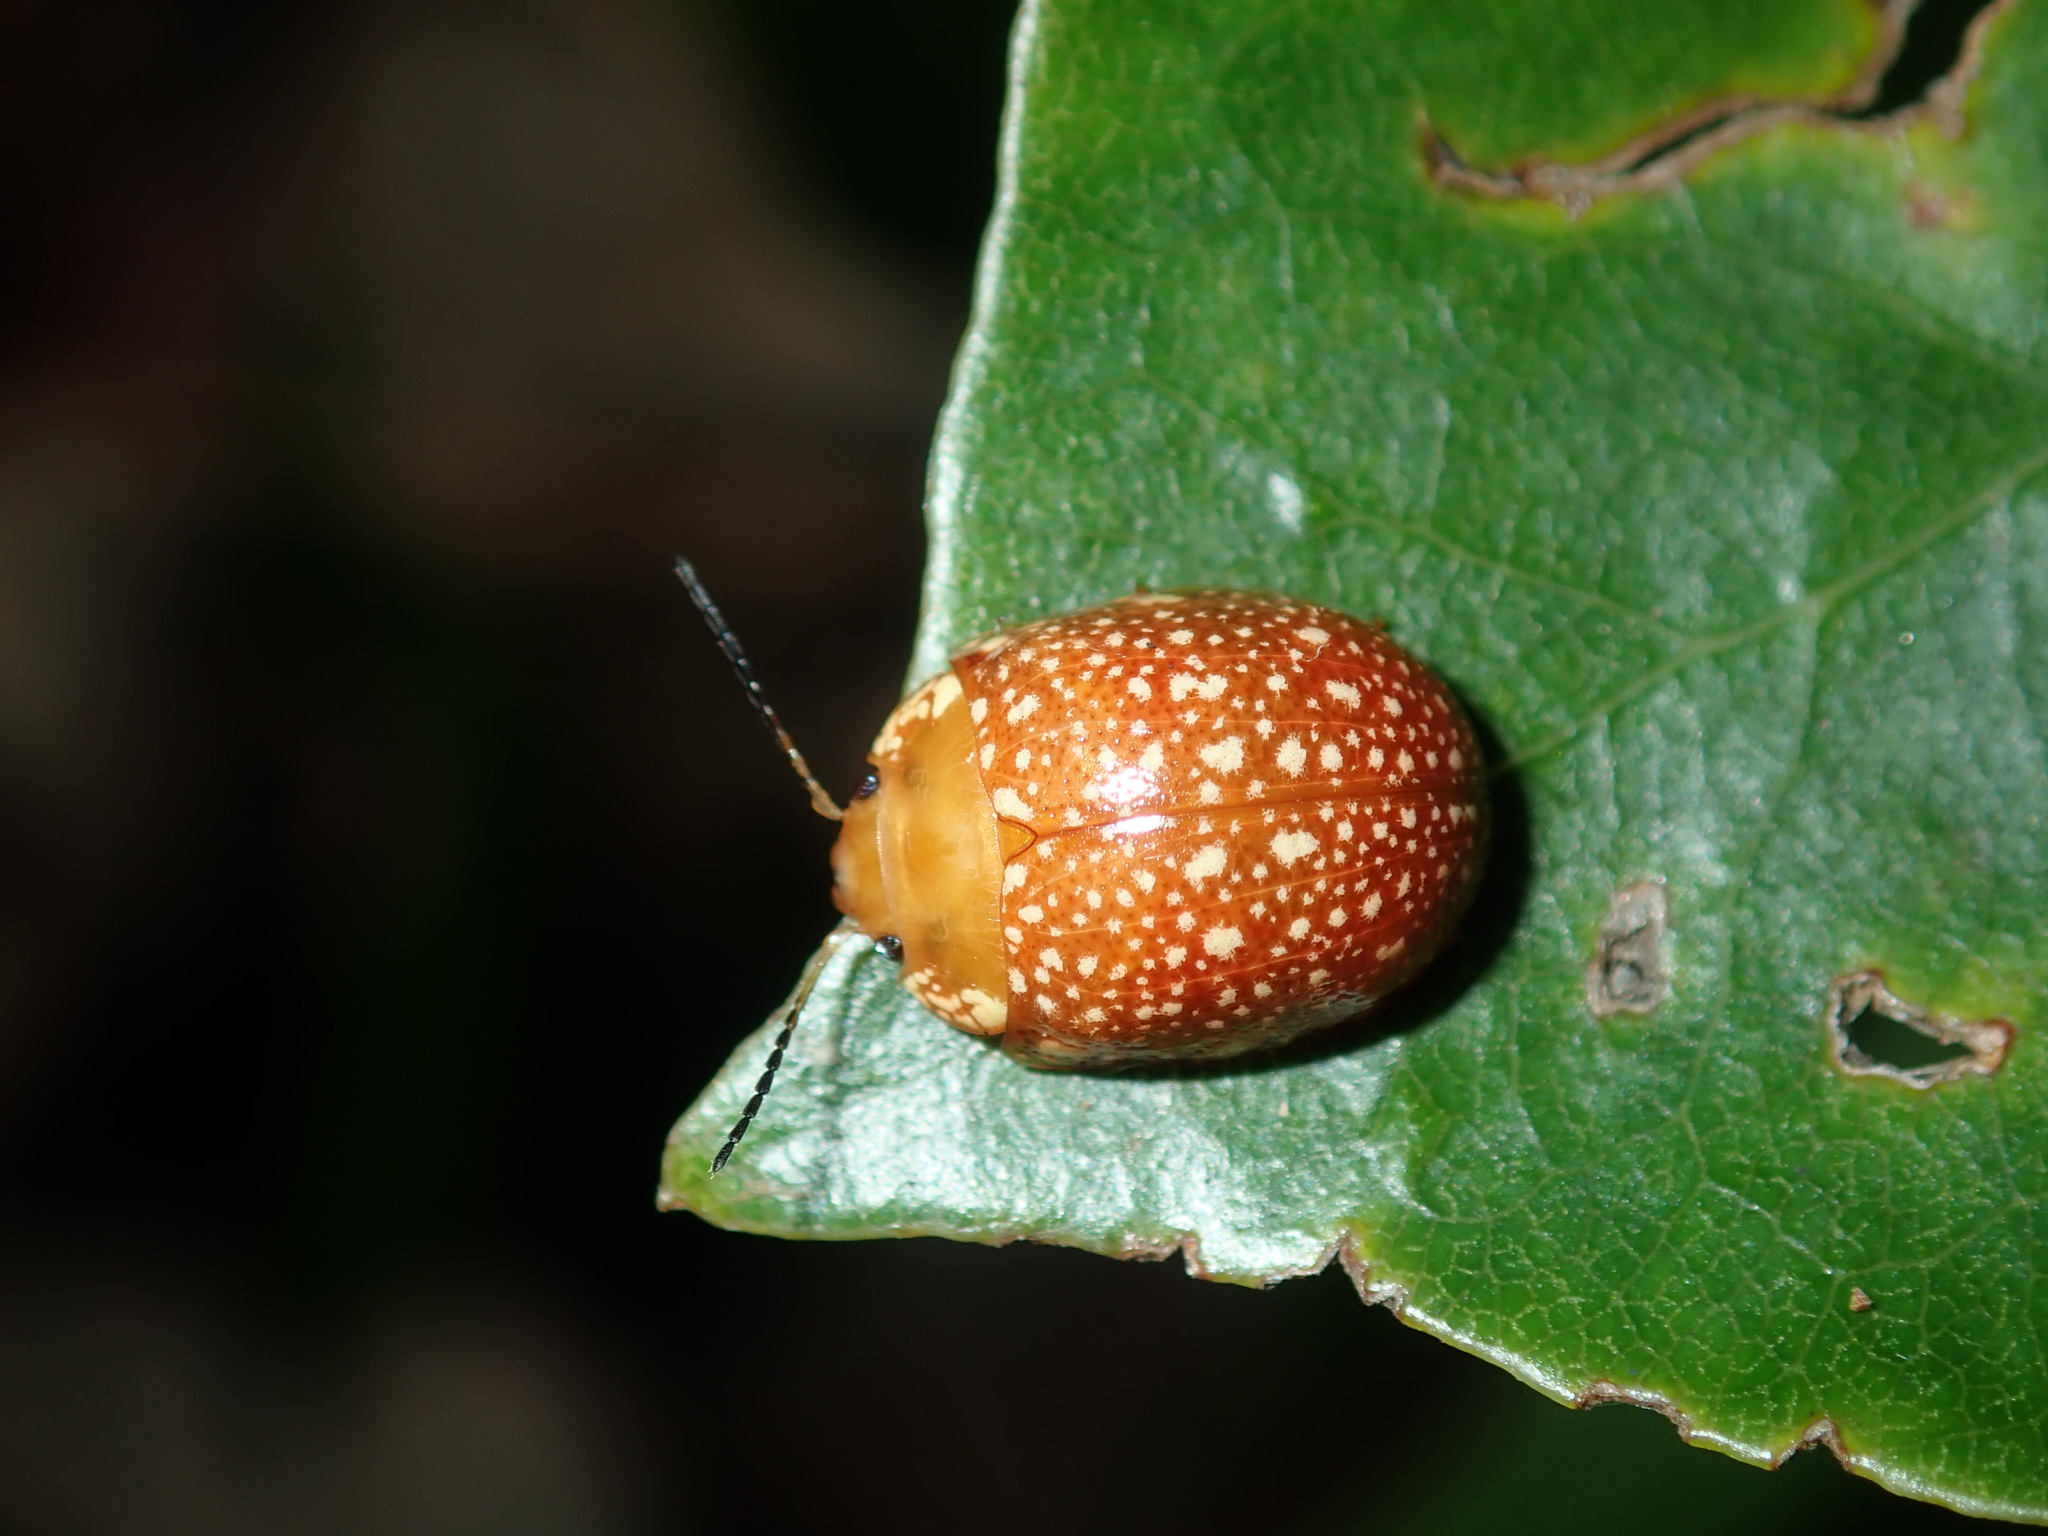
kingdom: Animalia
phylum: Arthropoda
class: Insecta
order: Coleoptera
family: Chrysomelidae
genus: Paropsis
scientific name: Paropsis
